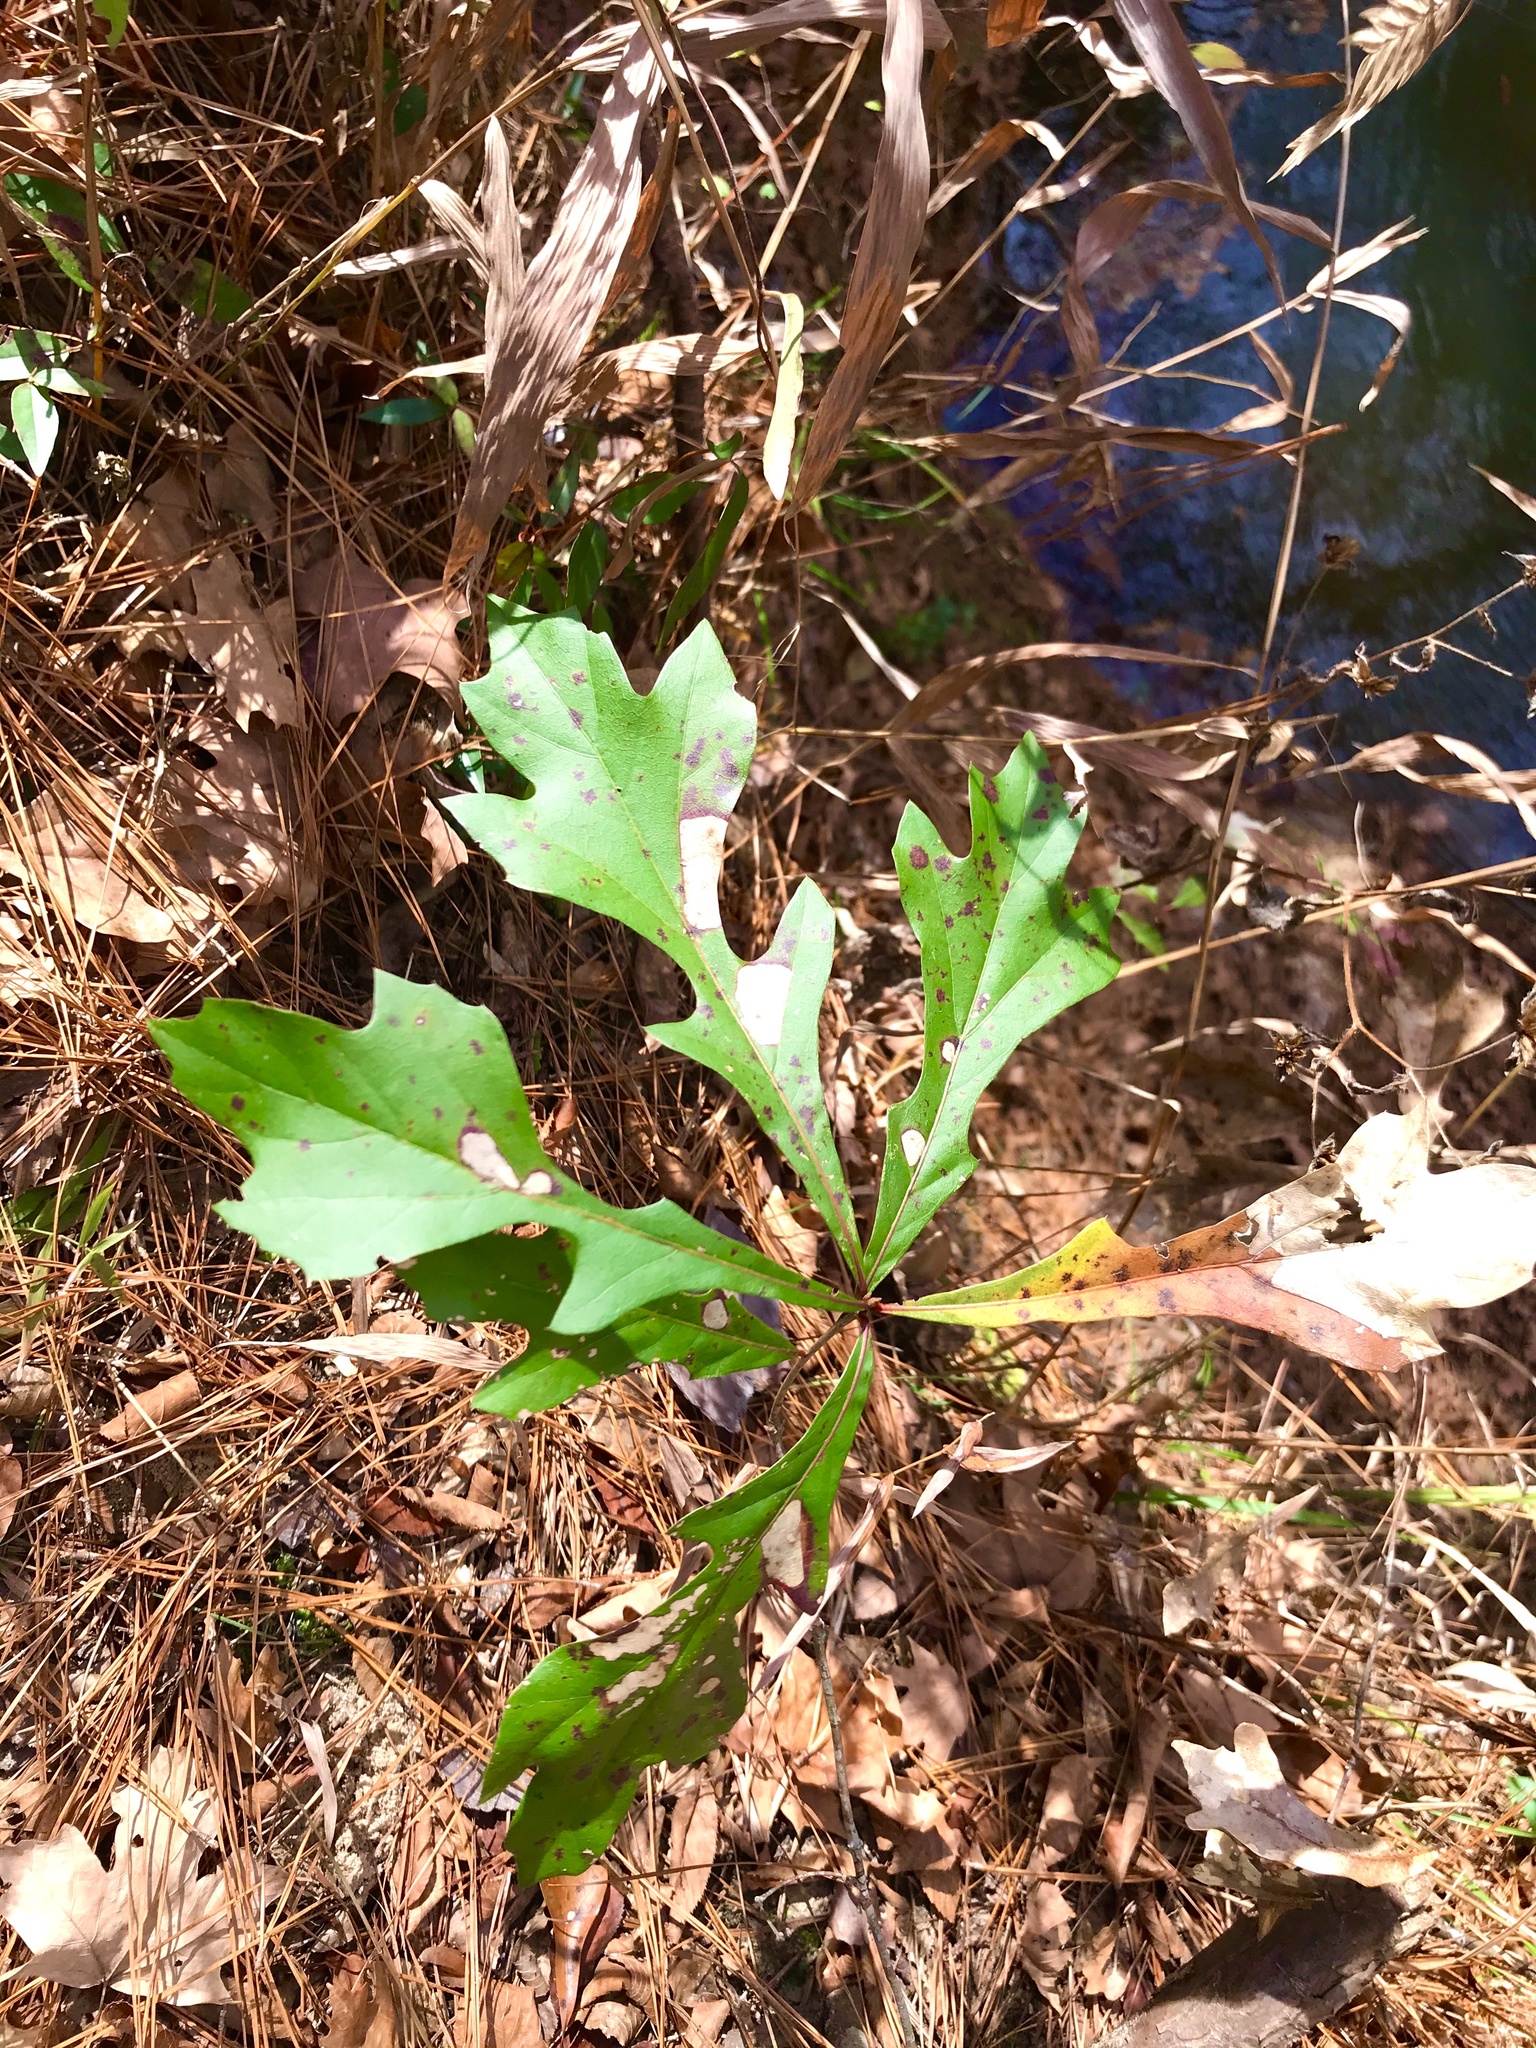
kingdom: Plantae
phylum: Tracheophyta
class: Magnoliopsida
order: Fagales
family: Fagaceae
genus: Quercus
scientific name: Quercus nigra
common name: Water oak
